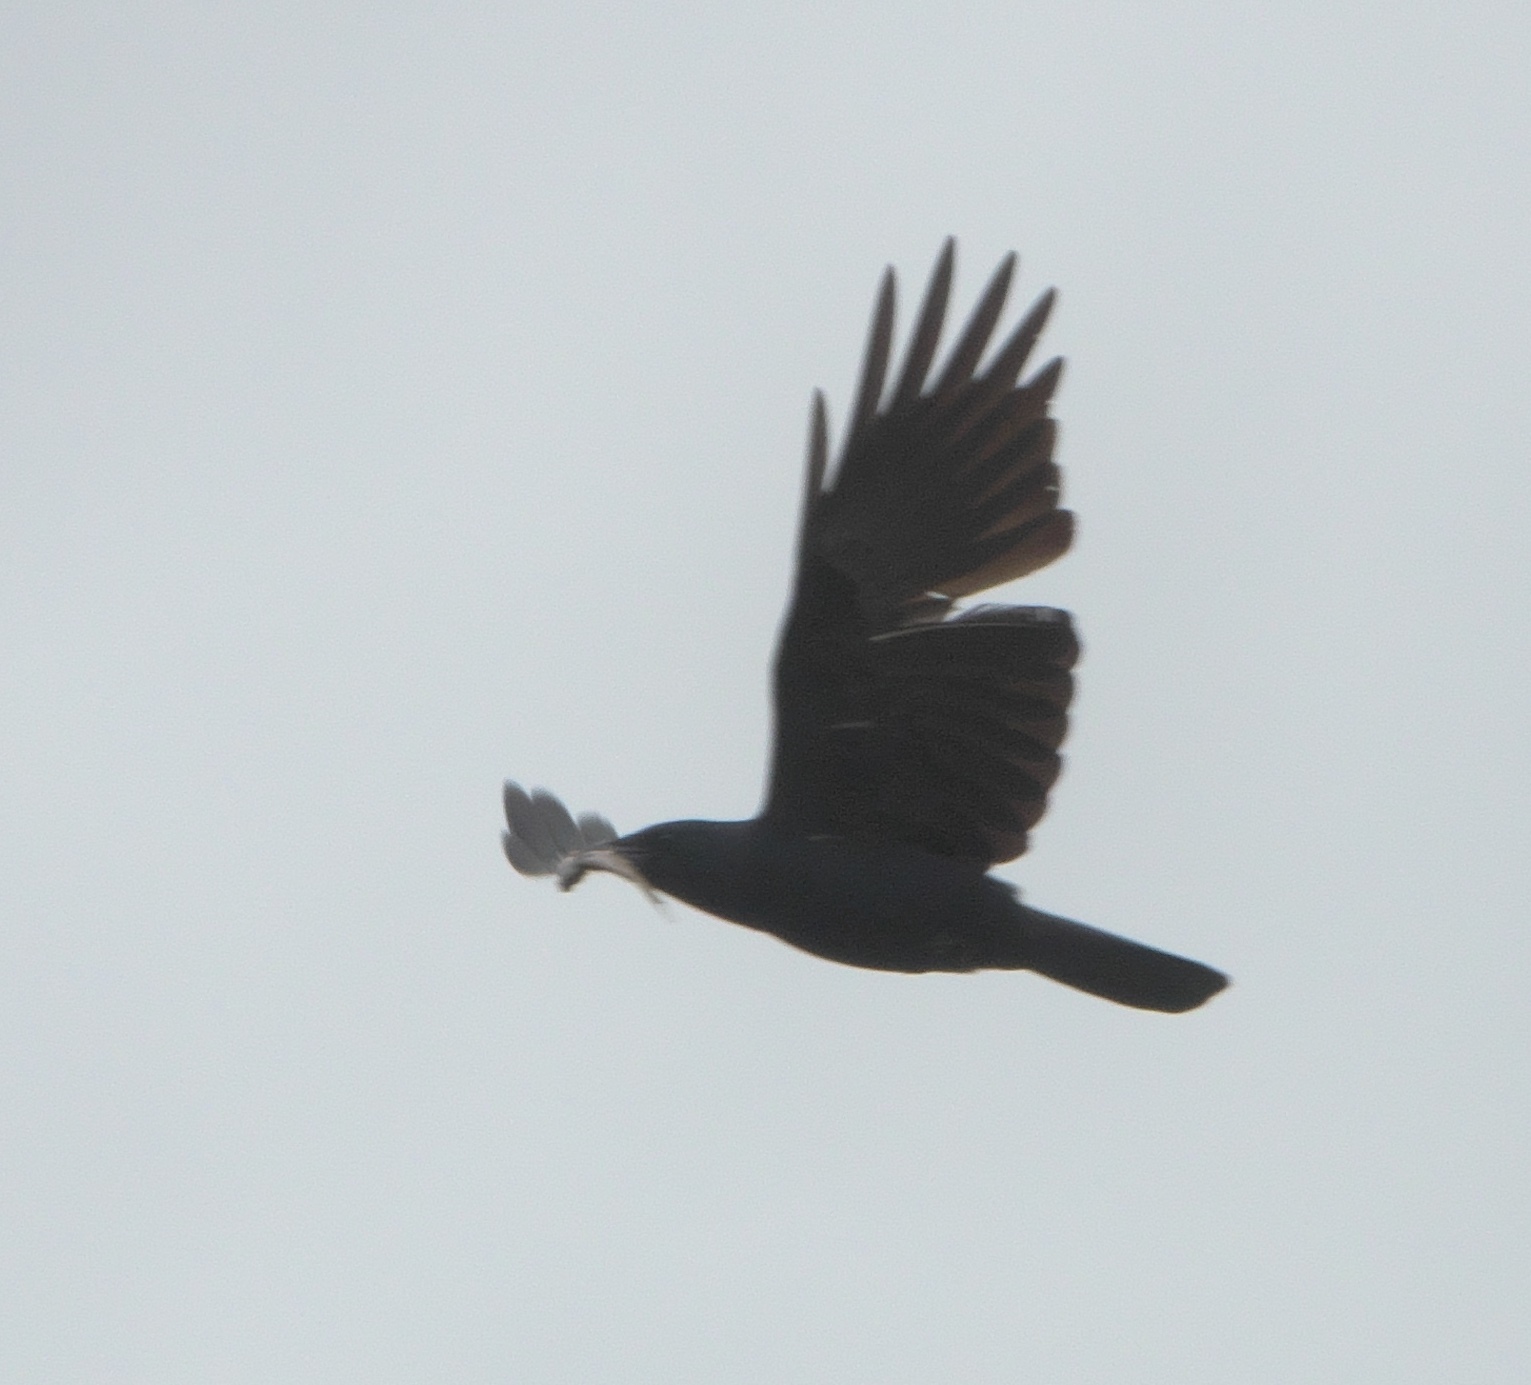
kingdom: Animalia
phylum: Chordata
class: Aves
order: Passeriformes
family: Corvidae
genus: Corvus
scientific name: Corvus brachyrhynchos
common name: American crow
